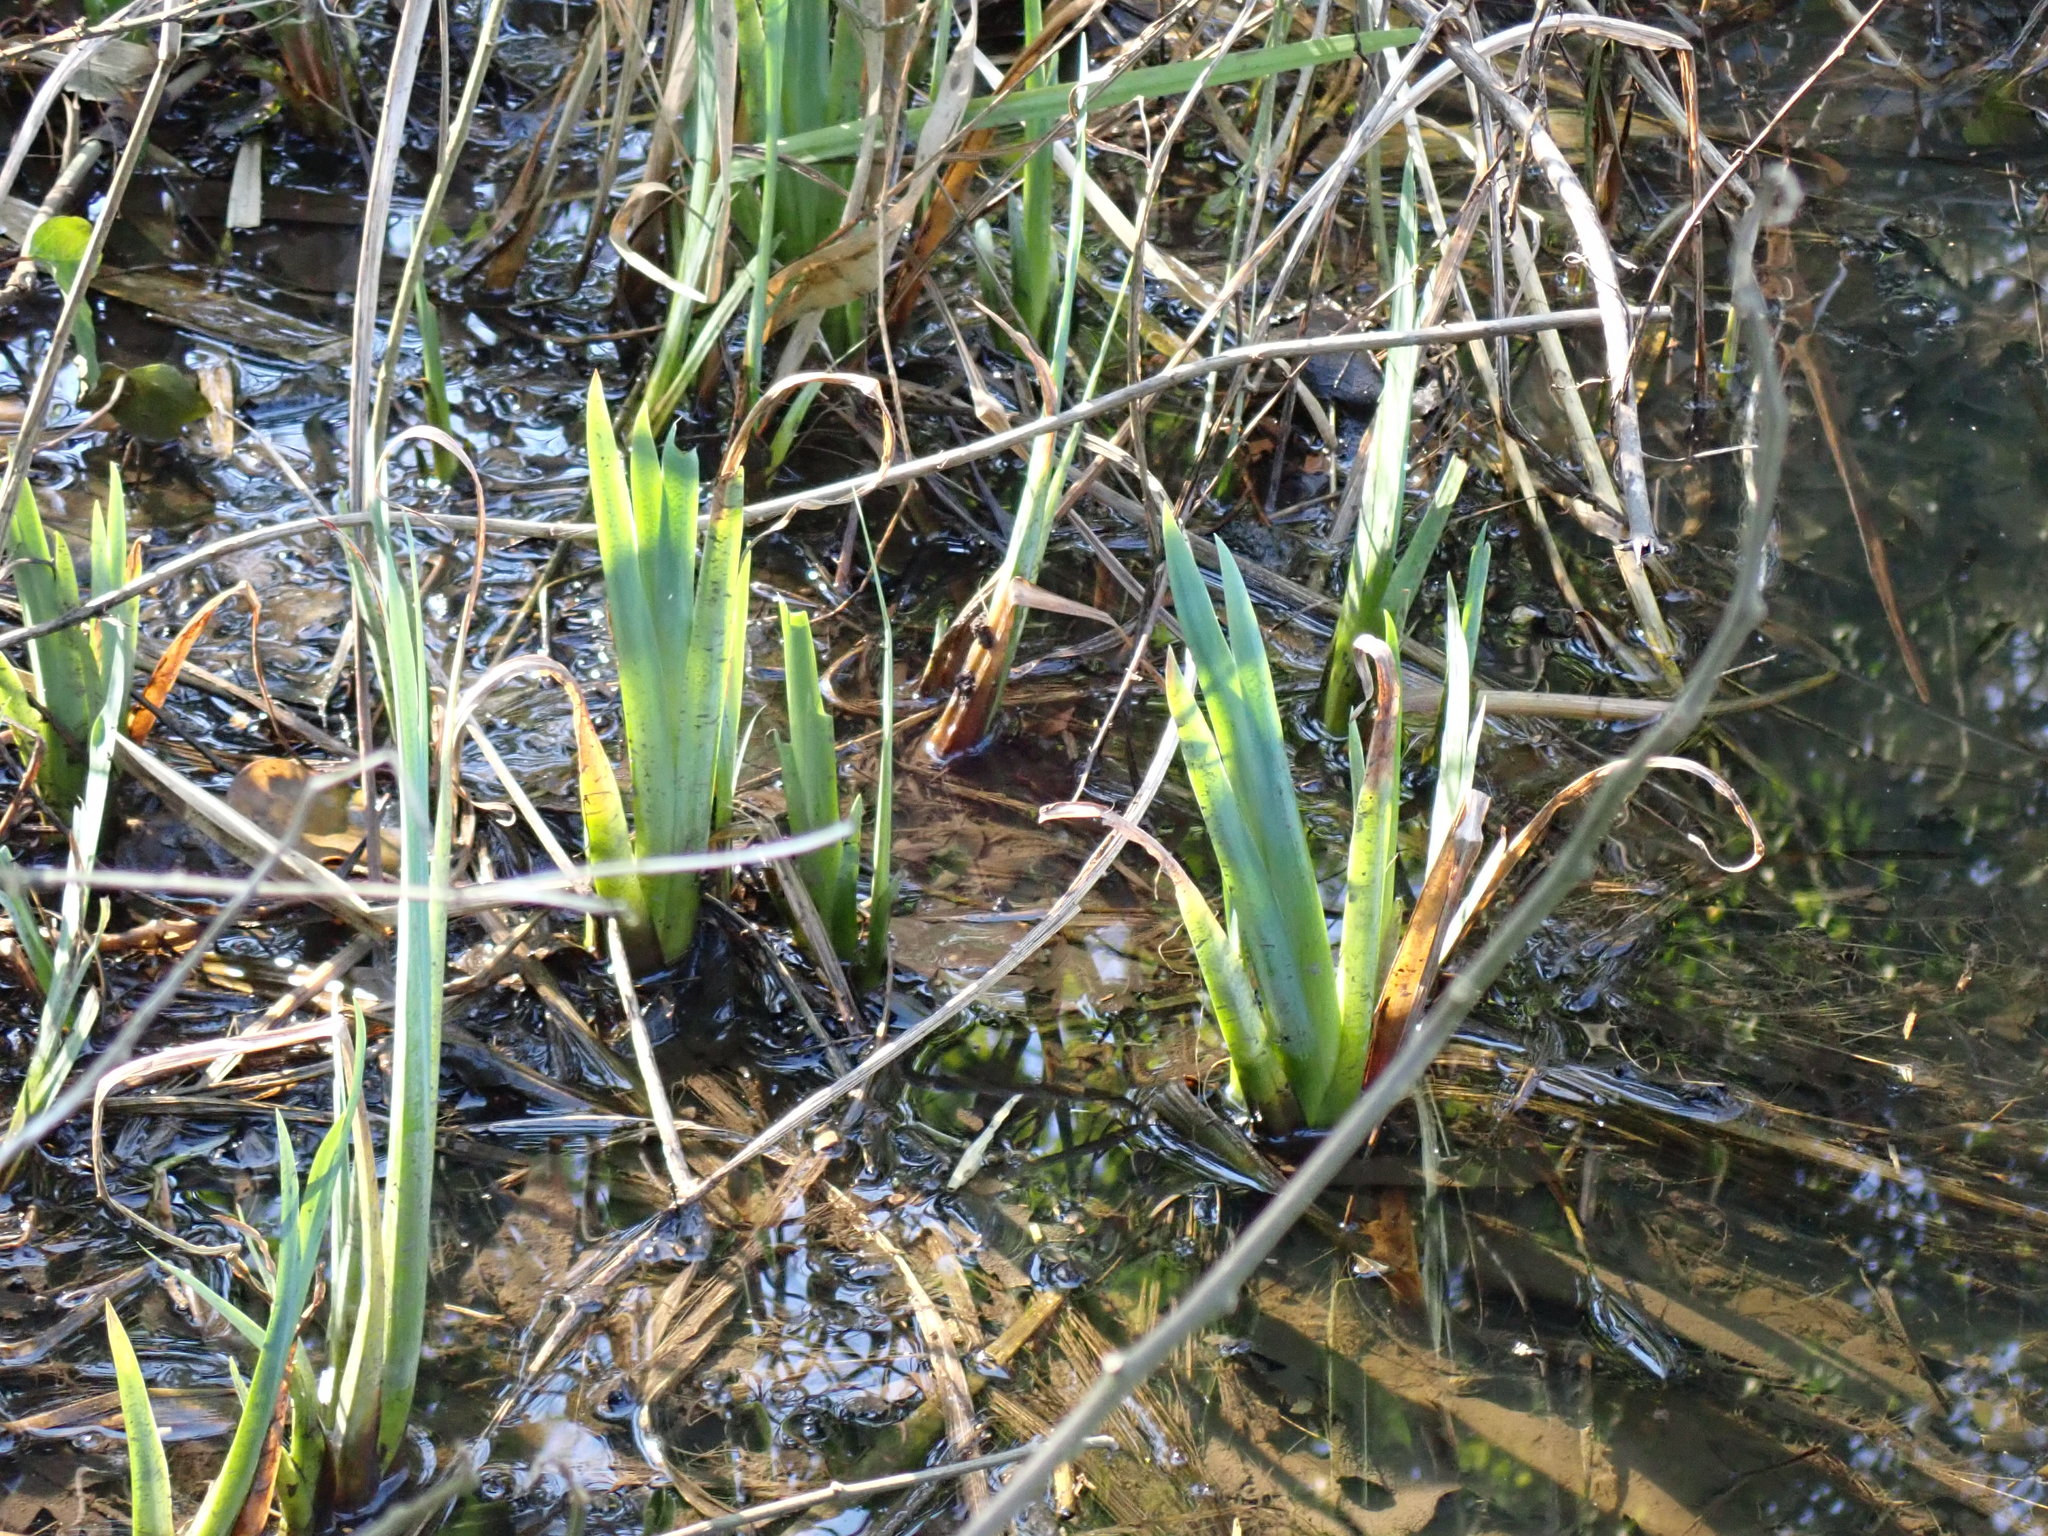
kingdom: Plantae
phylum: Tracheophyta
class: Liliopsida
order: Asparagales
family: Iridaceae
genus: Iris
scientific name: Iris pseudacorus
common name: Yellow flag
